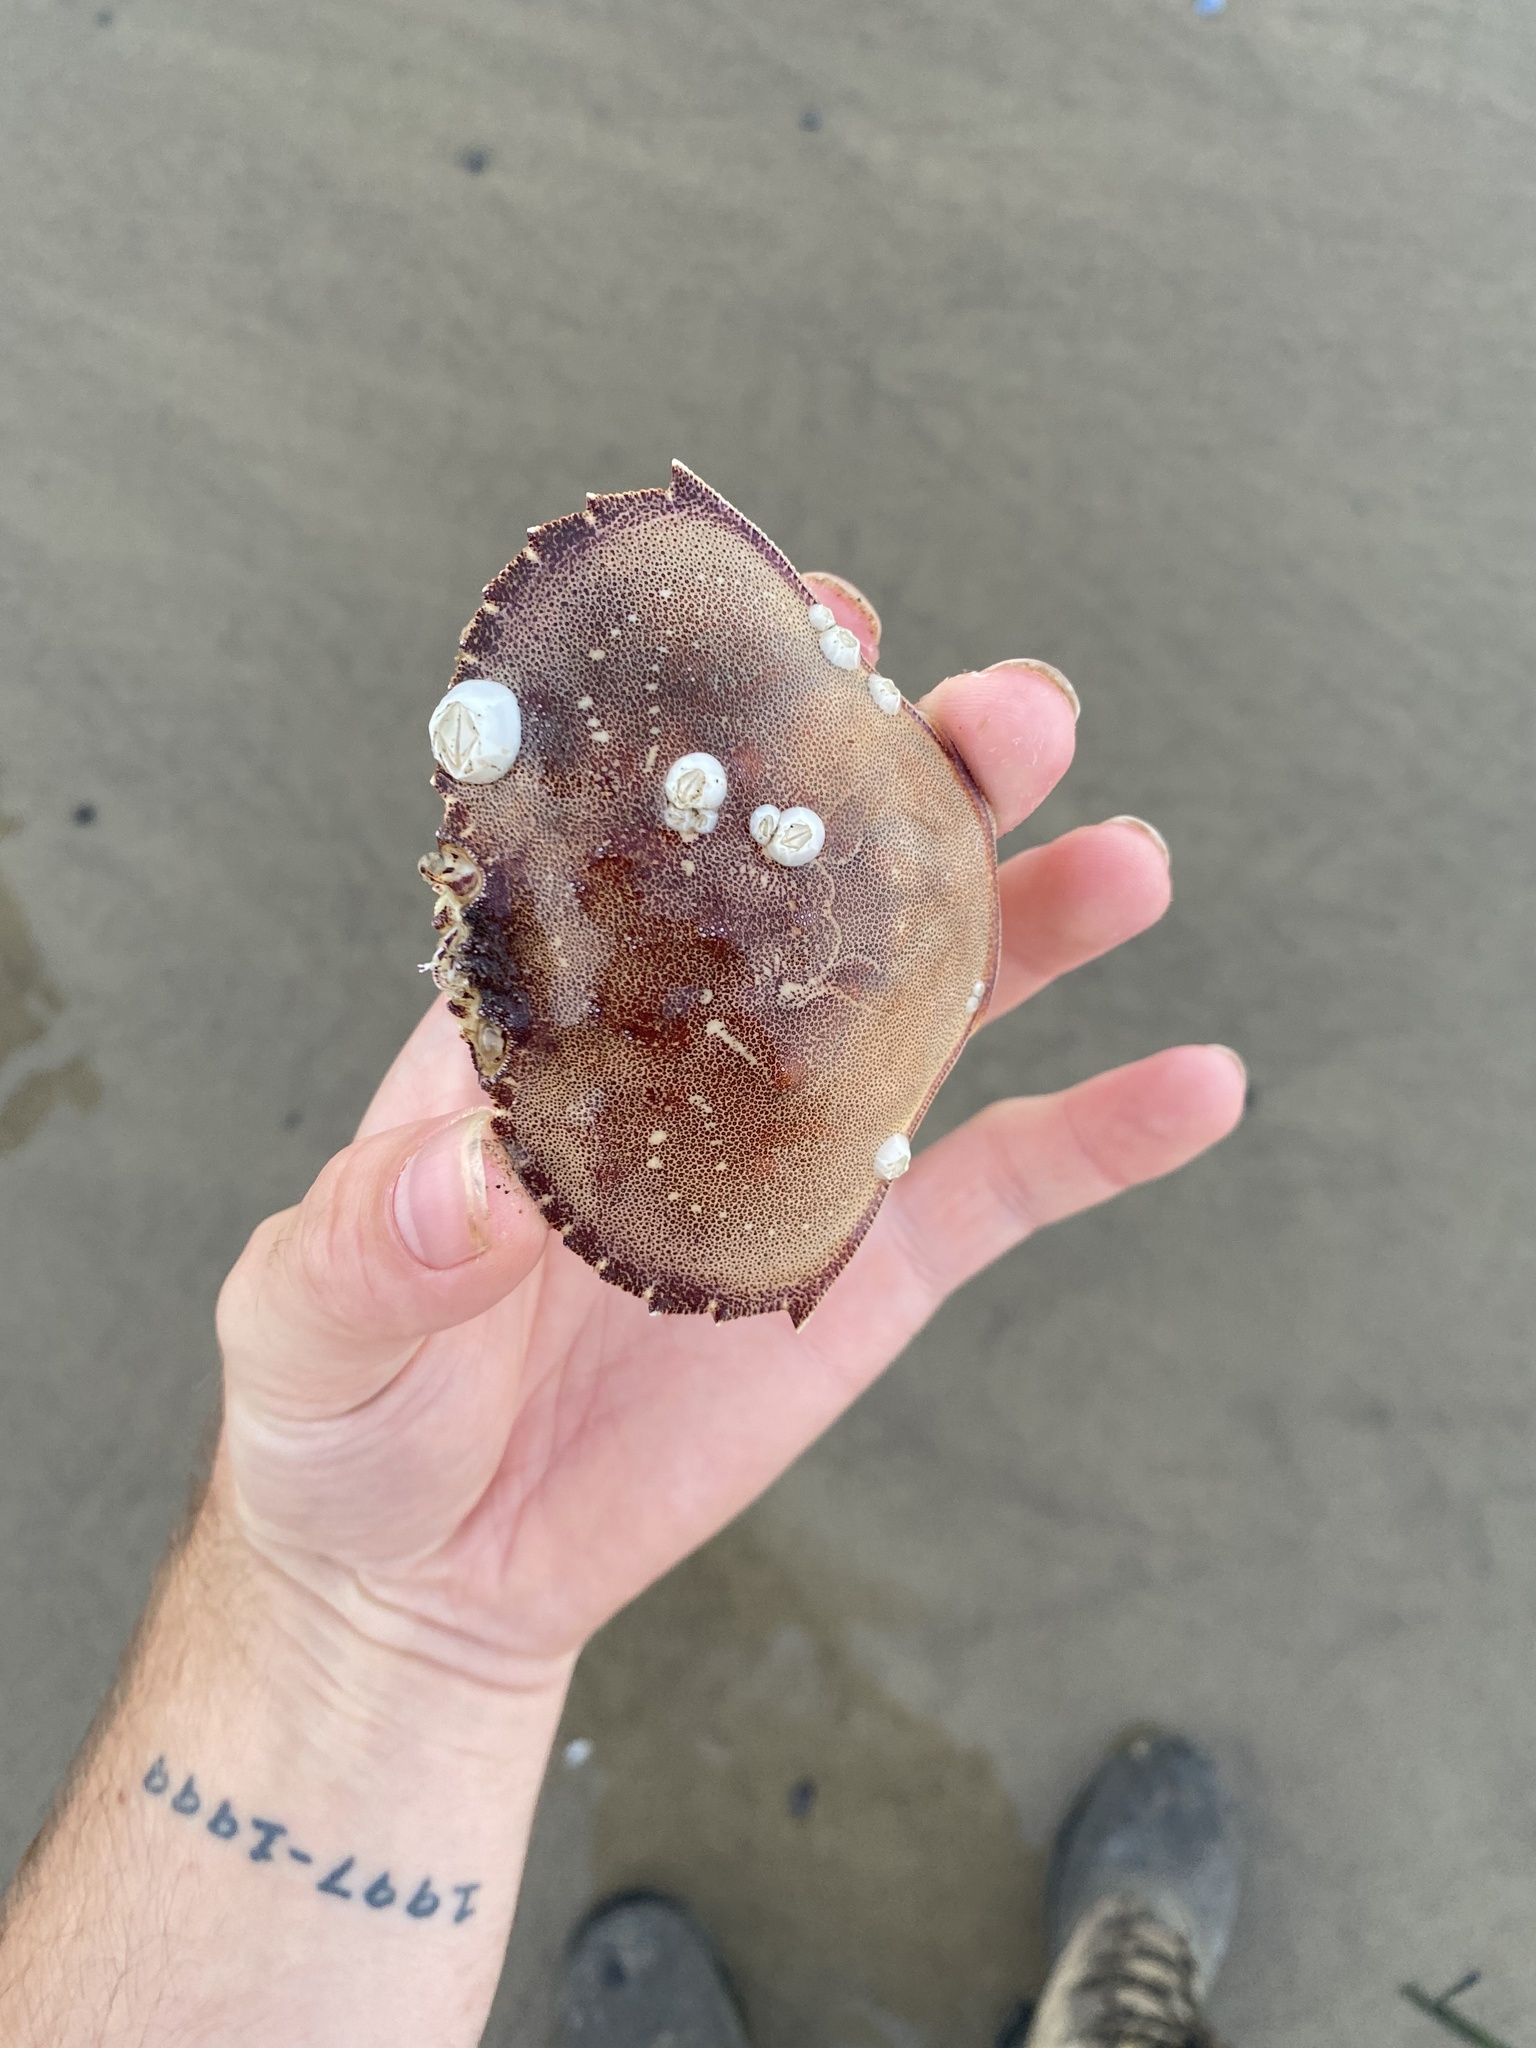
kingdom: Animalia
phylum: Arthropoda
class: Malacostraca
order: Decapoda
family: Cancridae
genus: Metacarcinus
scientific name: Metacarcinus magister
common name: Californian crab
